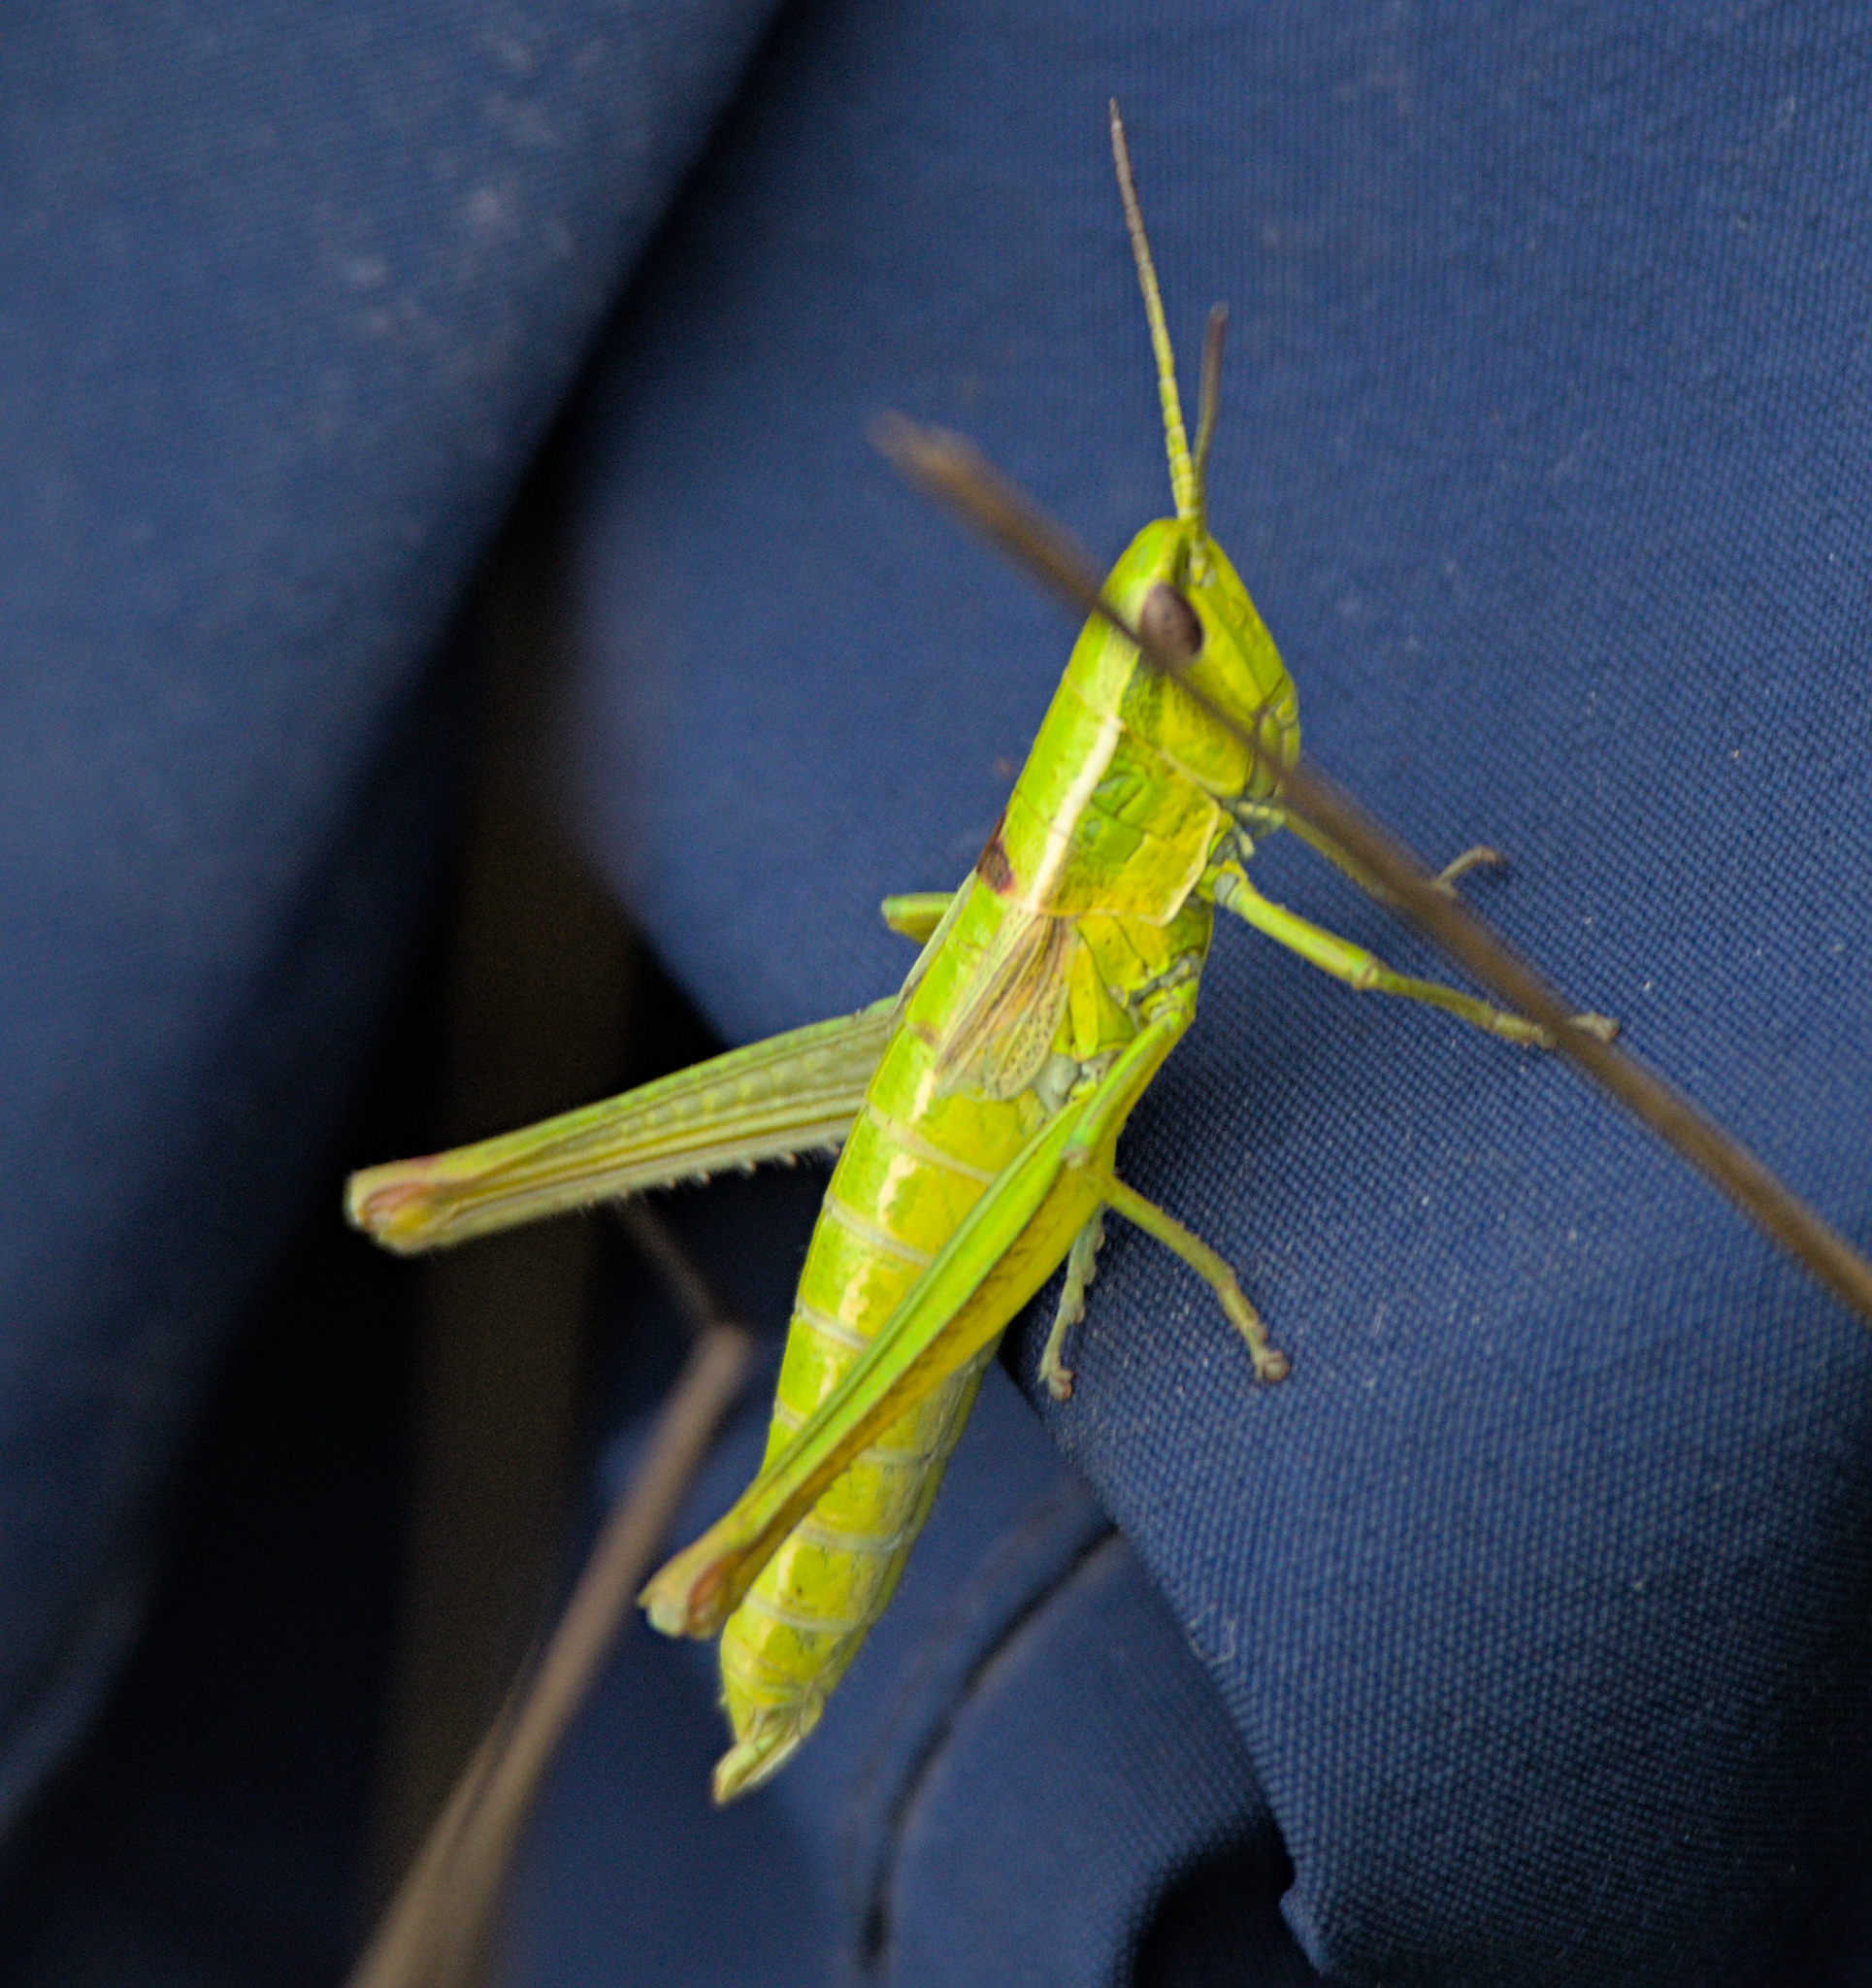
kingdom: Animalia
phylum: Arthropoda
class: Insecta
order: Orthoptera
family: Acrididae
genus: Euthystira
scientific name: Euthystira brachyptera
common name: Small gold grasshopper
